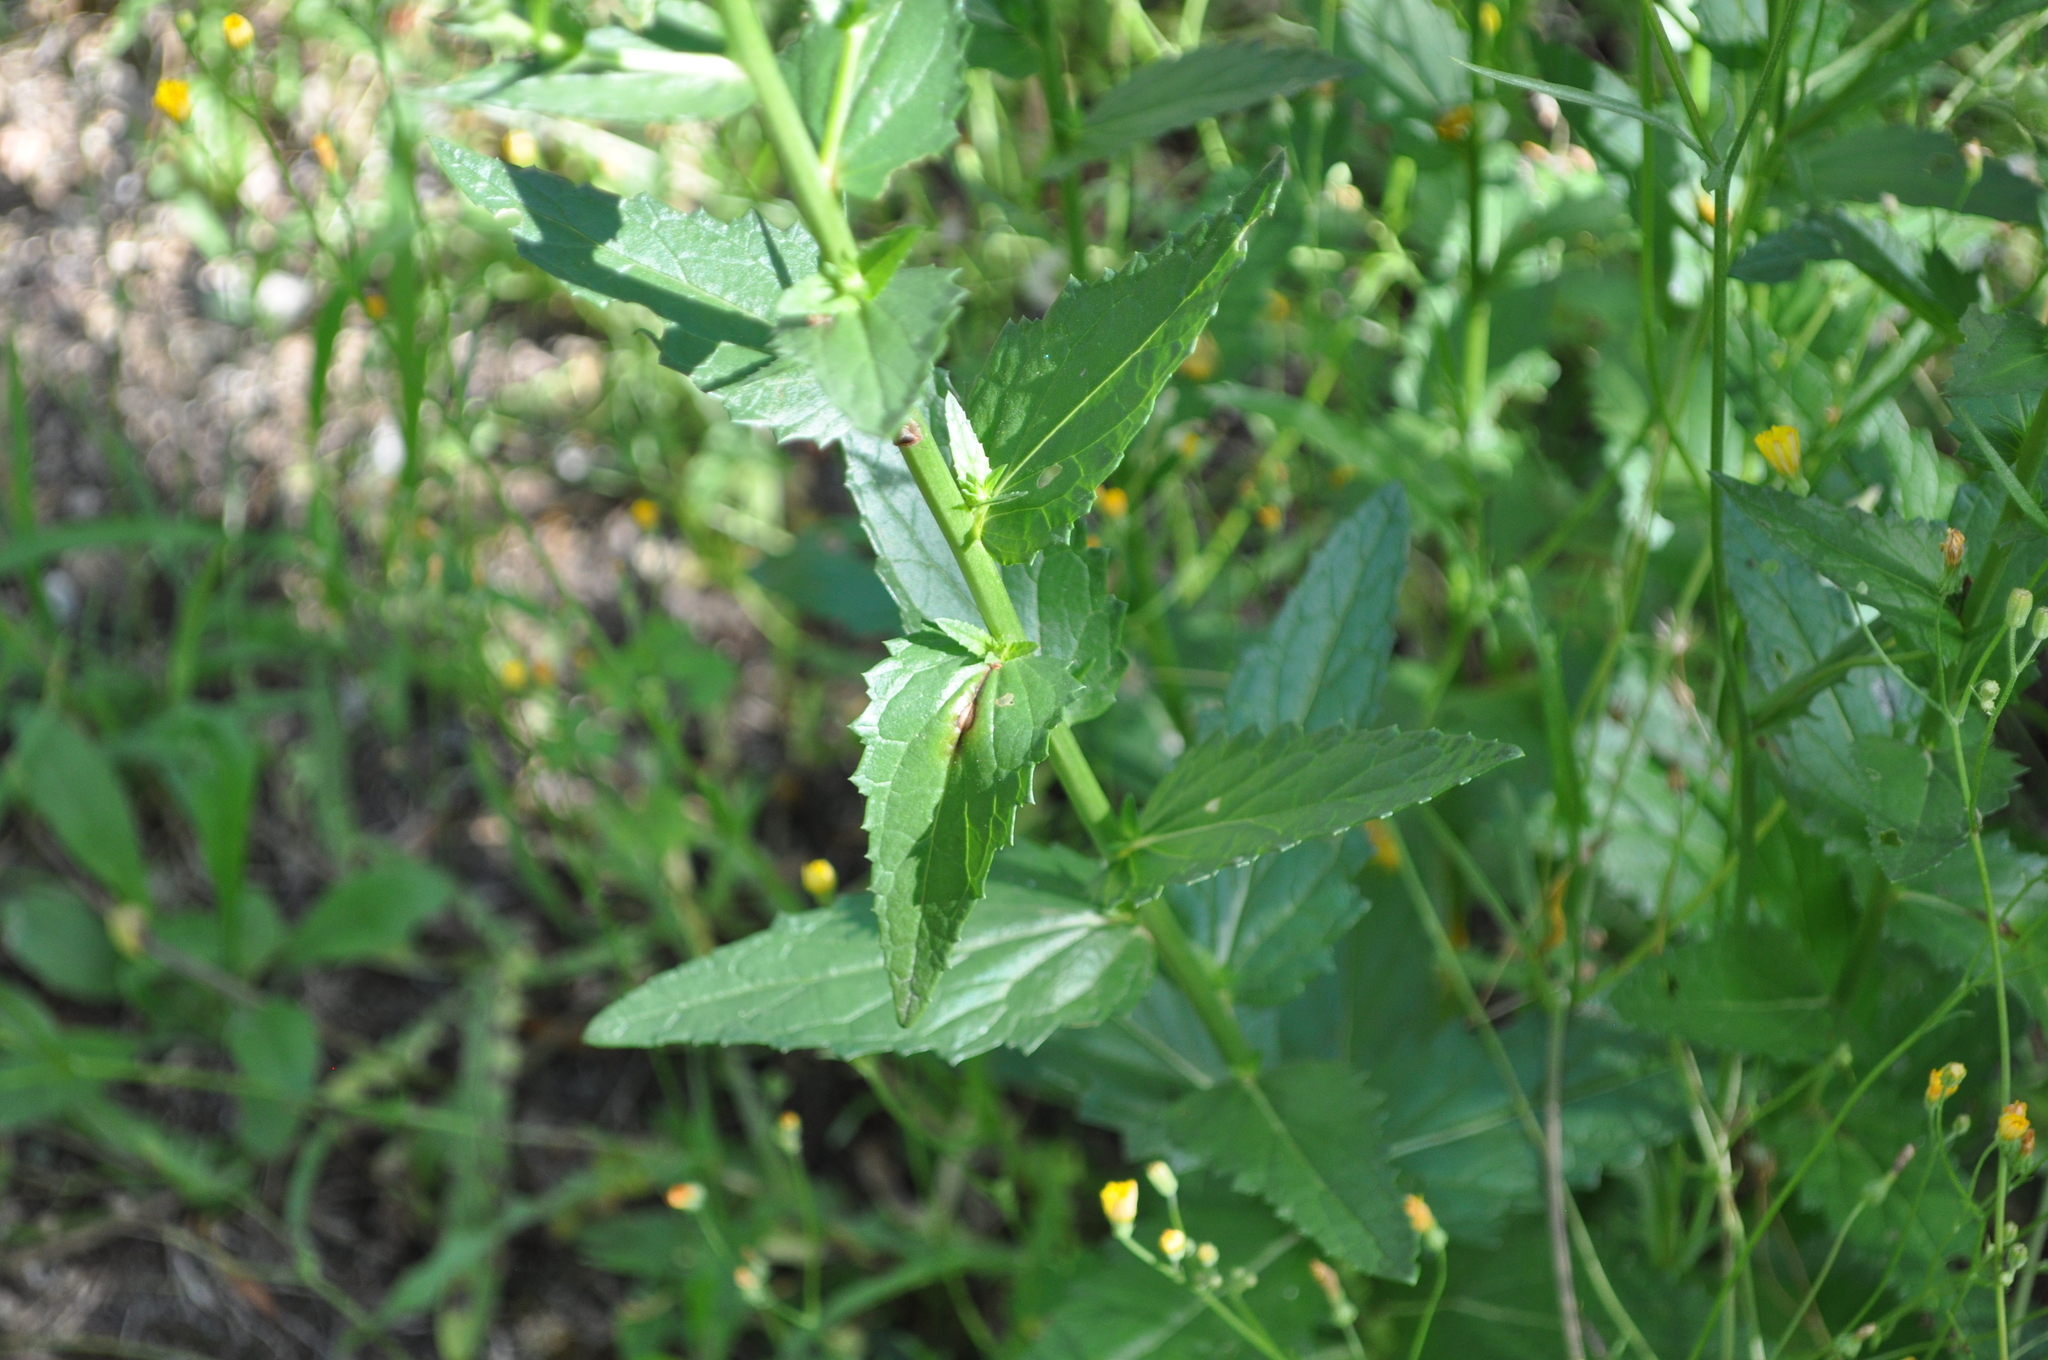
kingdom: Plantae
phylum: Tracheophyta
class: Magnoliopsida
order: Lamiales
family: Scrophulariaceae
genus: Verbascum
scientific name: Verbascum blattaria
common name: Moth mullein
